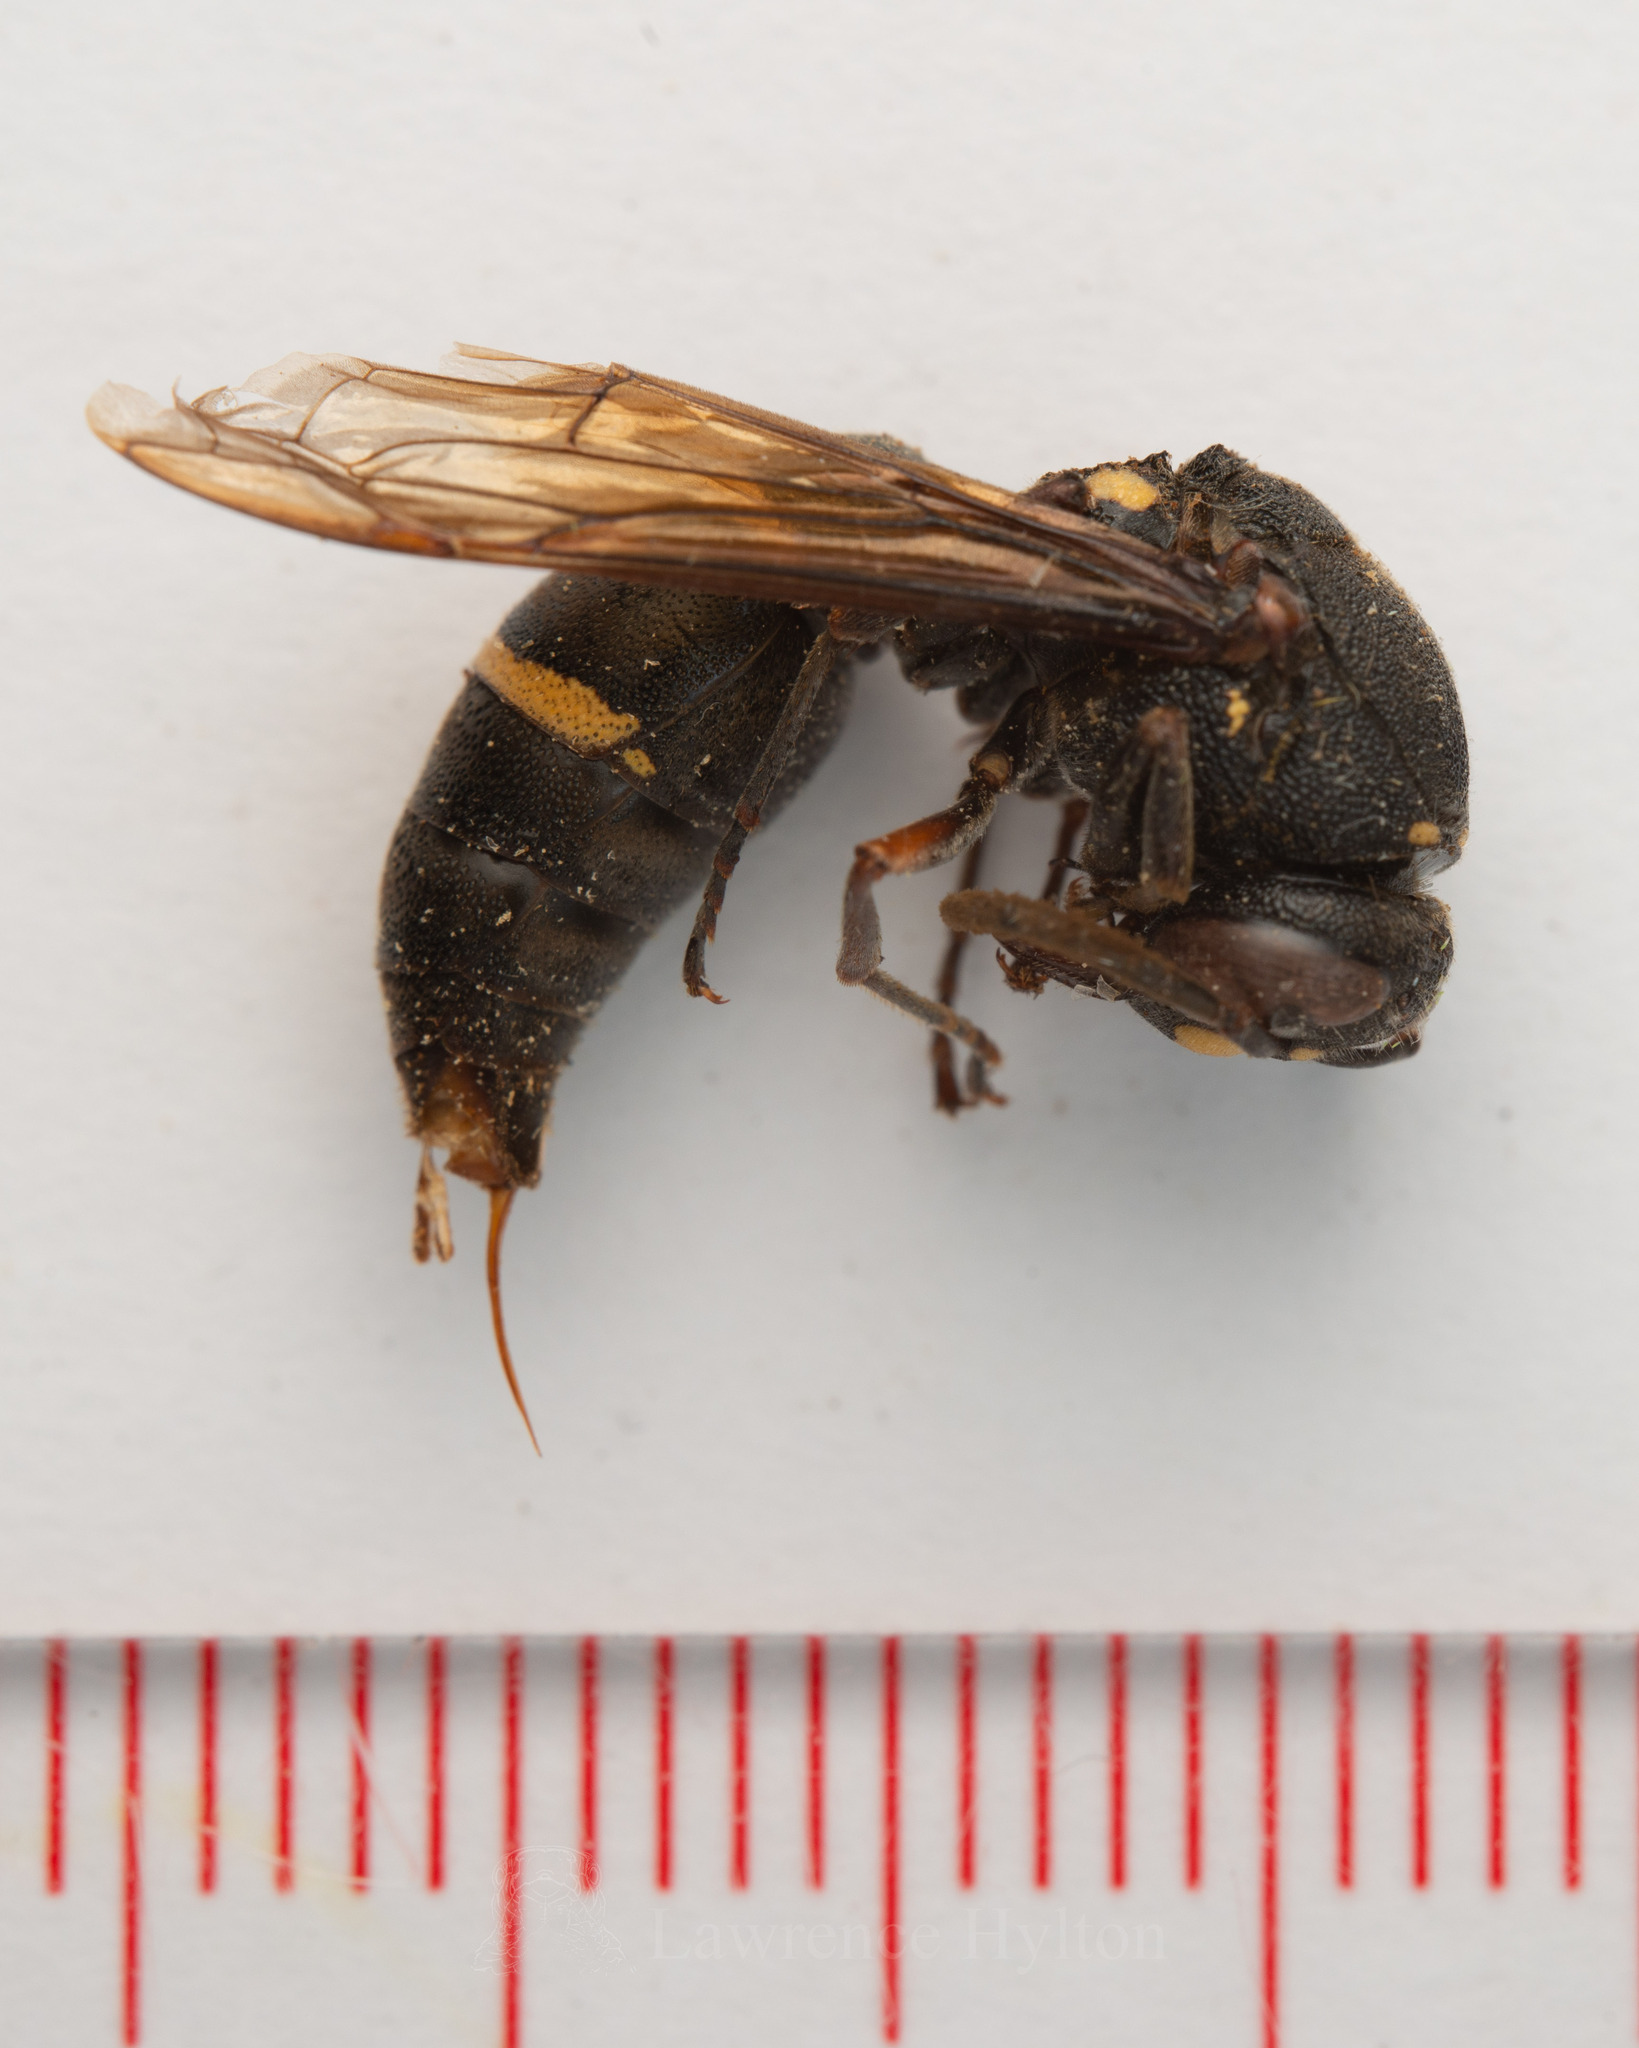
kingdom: Animalia
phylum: Arthropoda
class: Insecta
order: Hymenoptera
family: Eumenidae
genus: Anterhynchium
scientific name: Anterhynchium flavomarginatum
